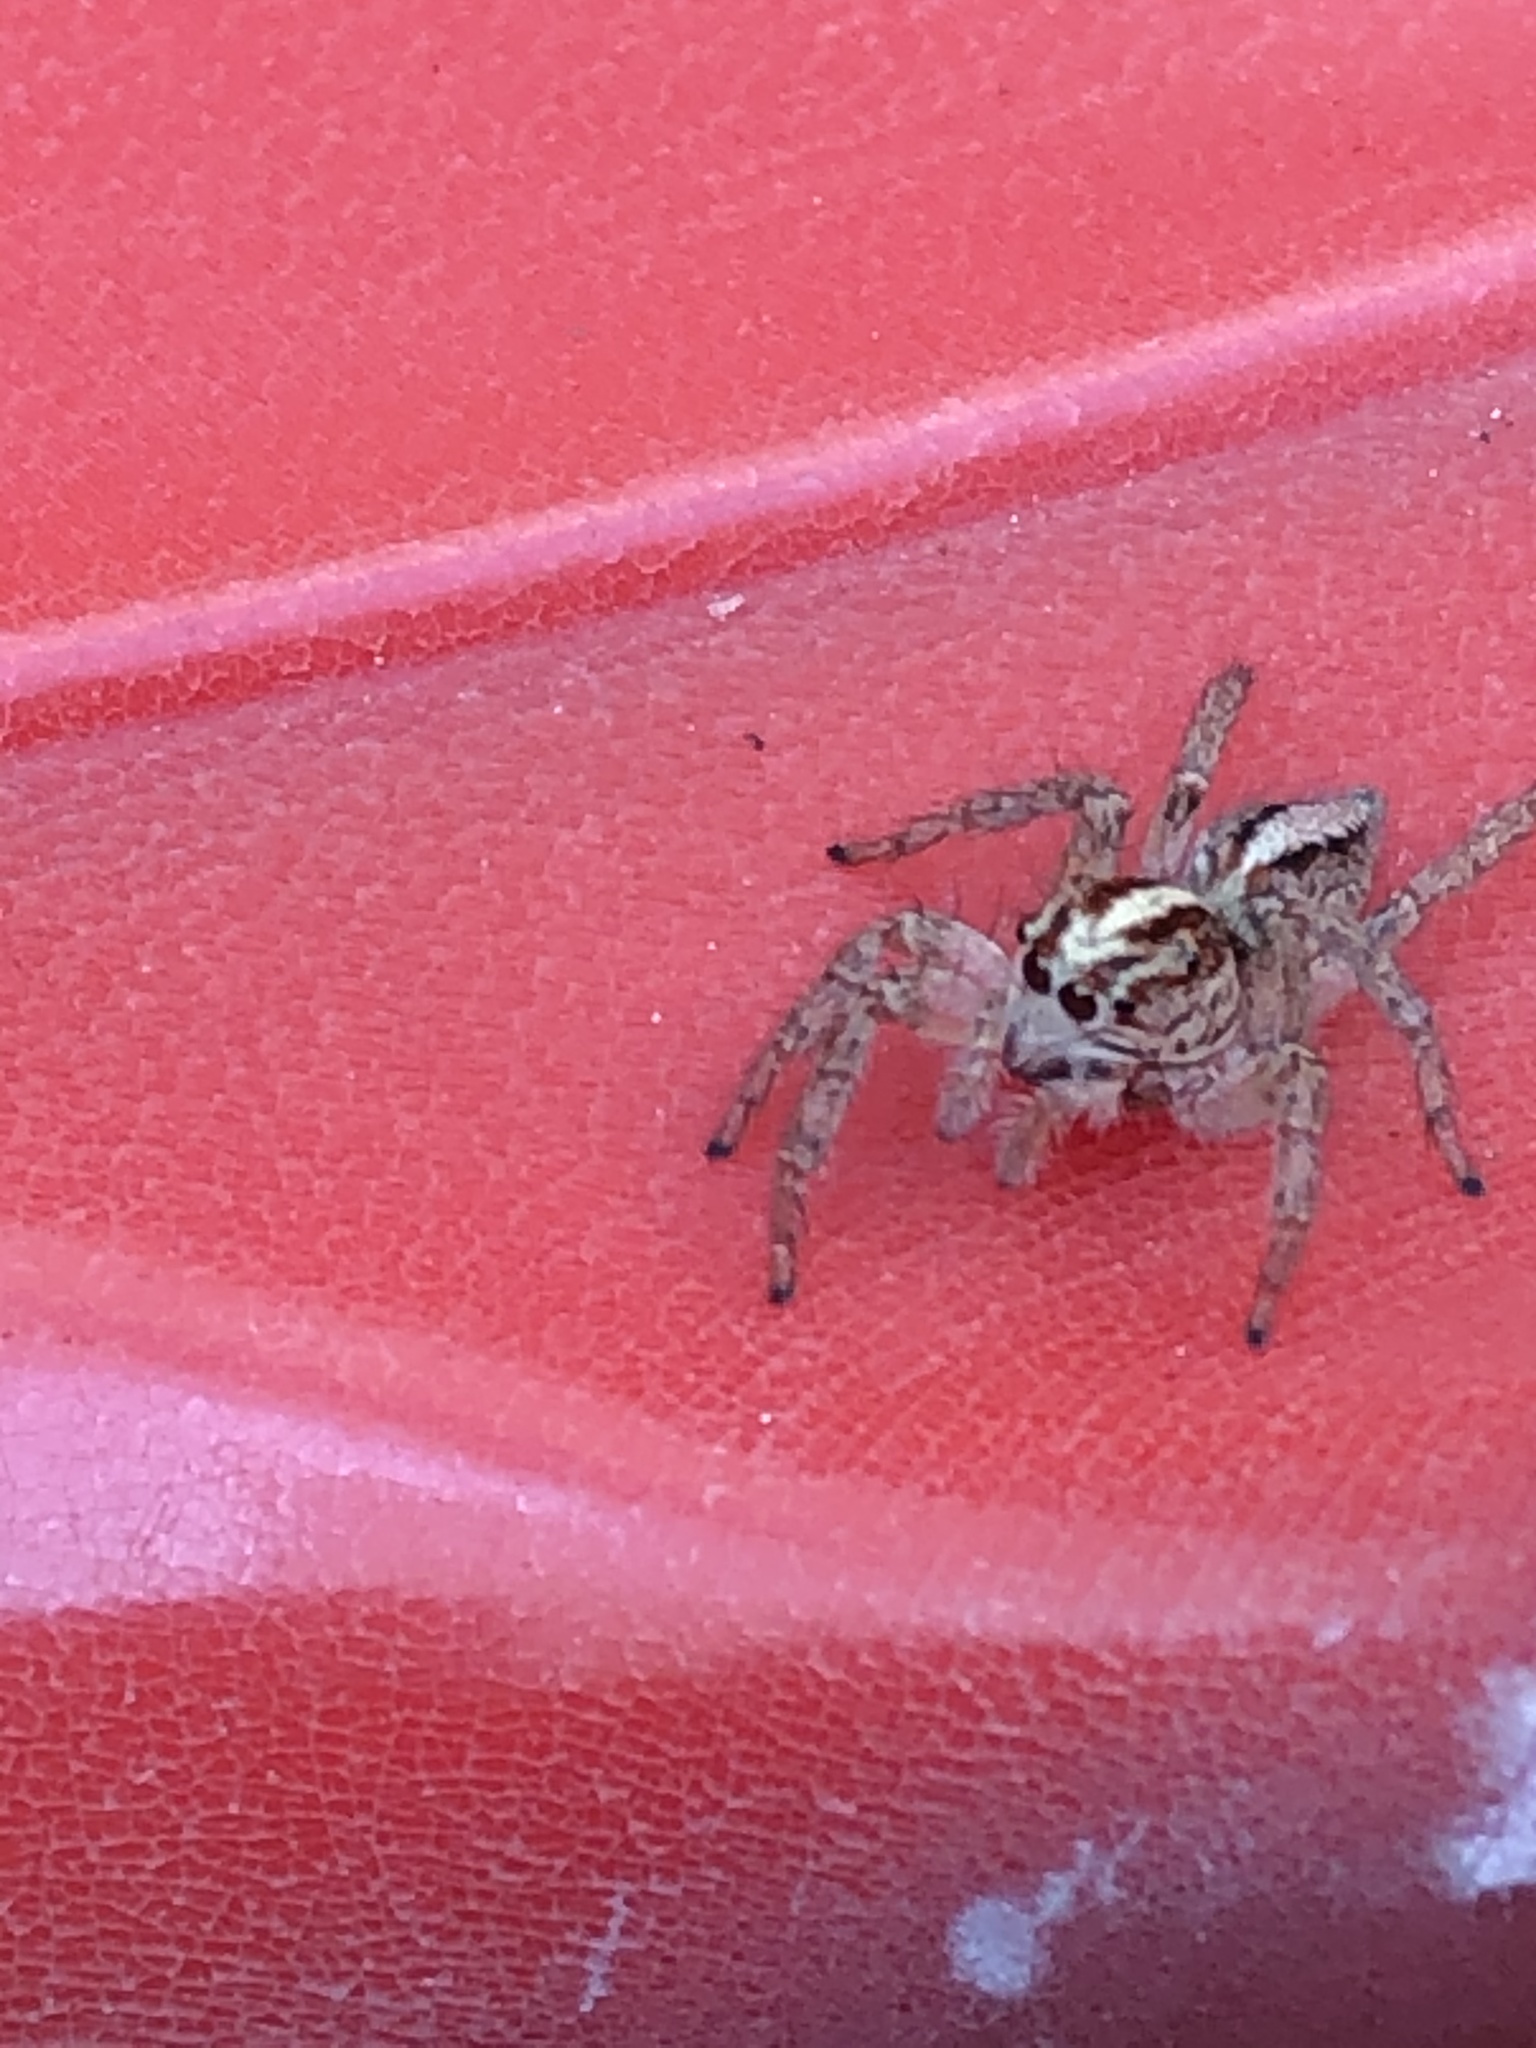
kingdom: Animalia
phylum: Arthropoda
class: Arachnida
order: Araneae
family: Salticidae
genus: Frigga
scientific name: Frigga crocuta
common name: Jumping spiders
